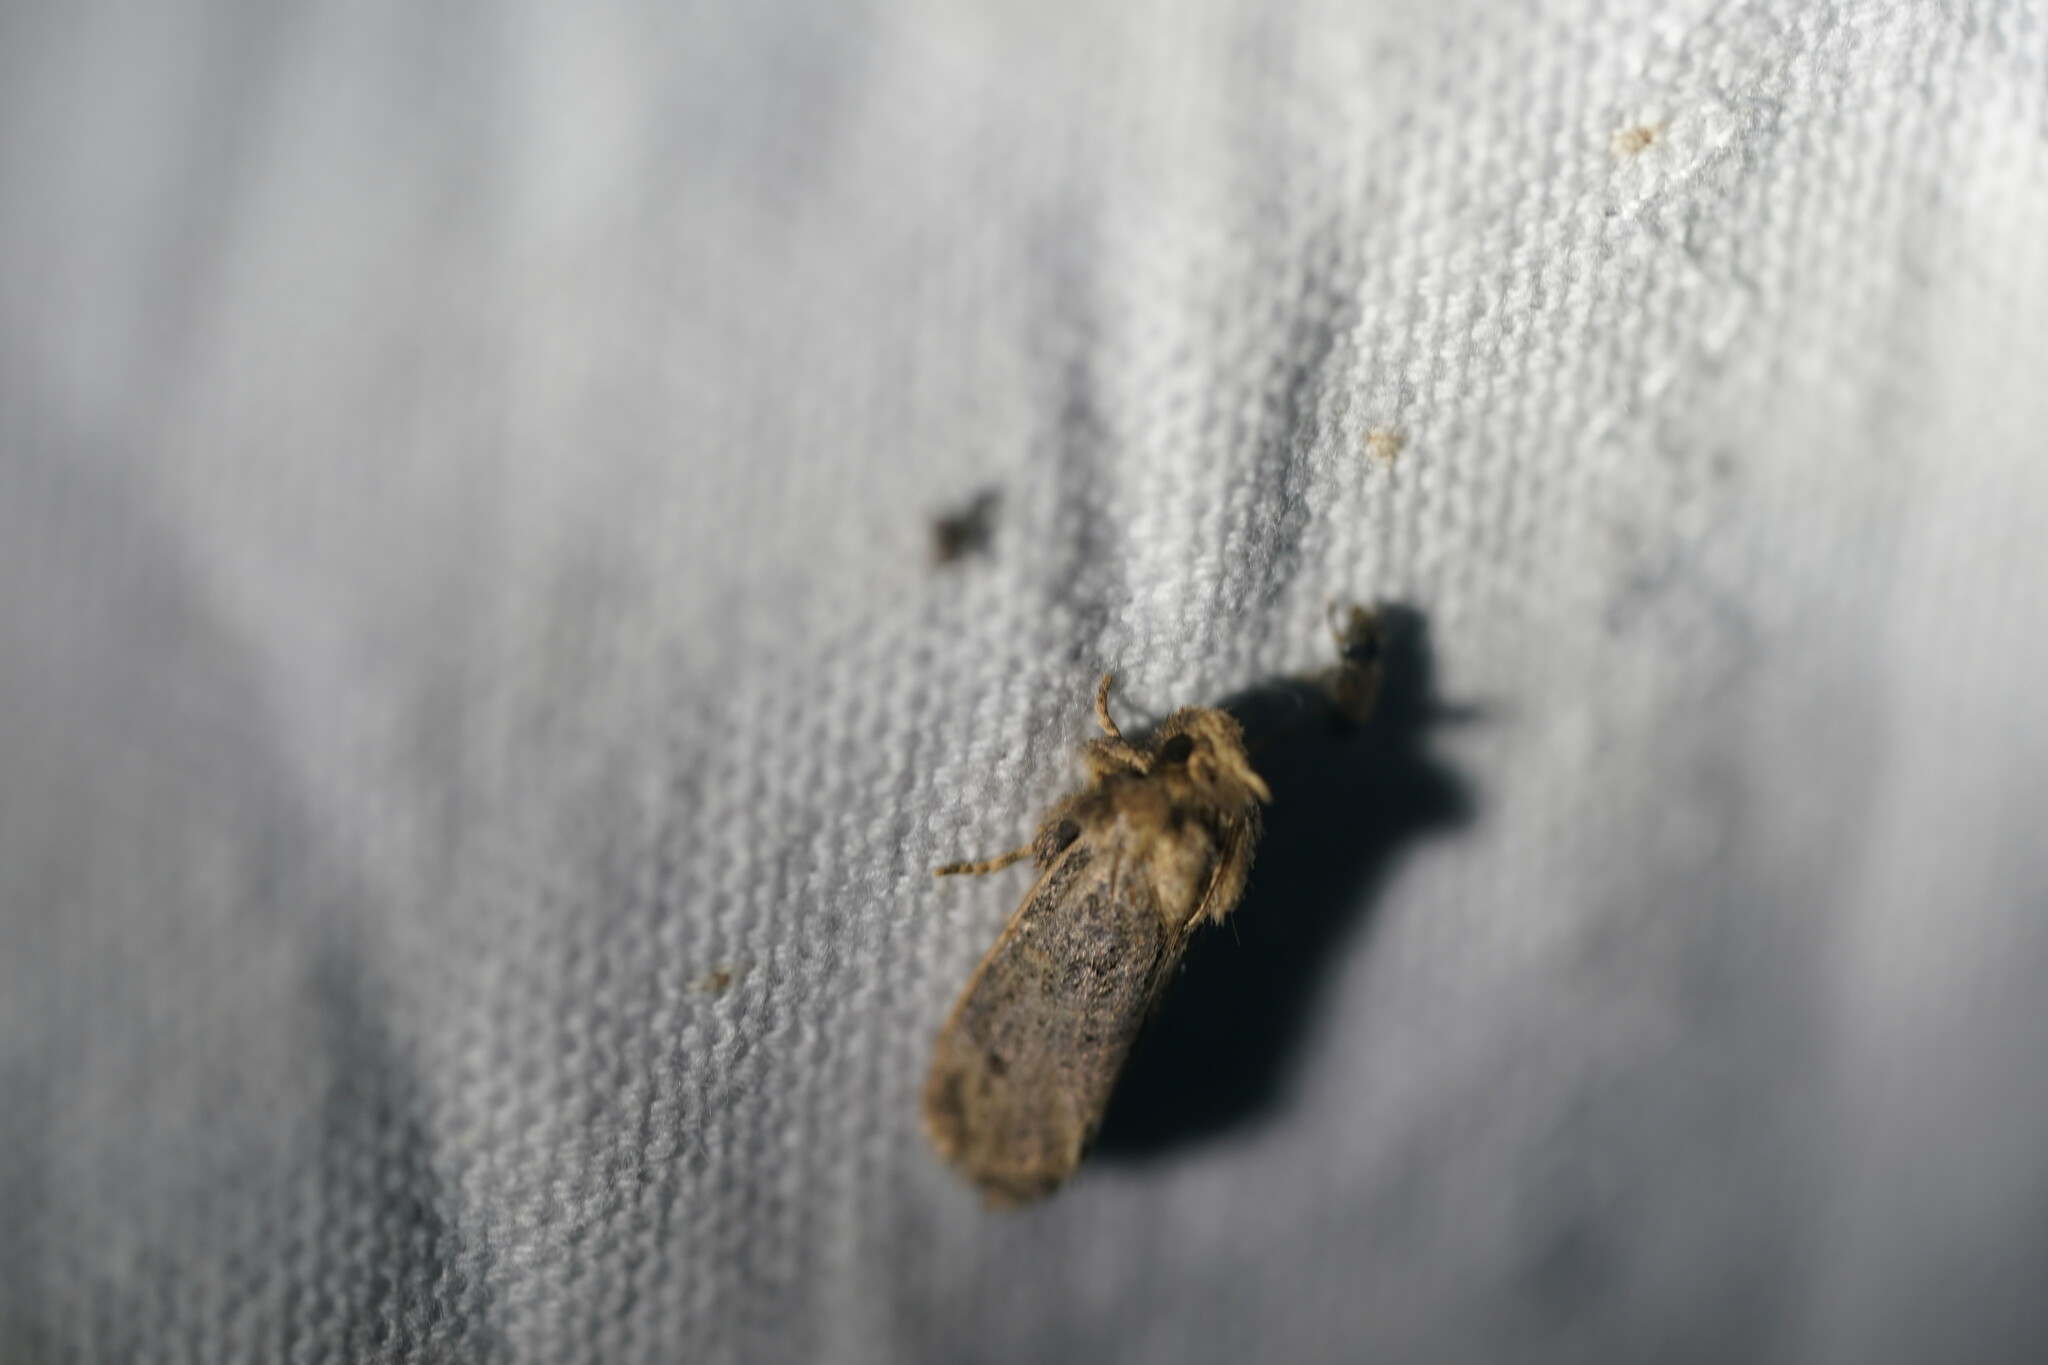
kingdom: Animalia
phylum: Arthropoda
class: Insecta
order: Lepidoptera
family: Tineidae
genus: Acrolophus
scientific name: Acrolophus arcanella
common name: Arcane grass tubeworm moth
